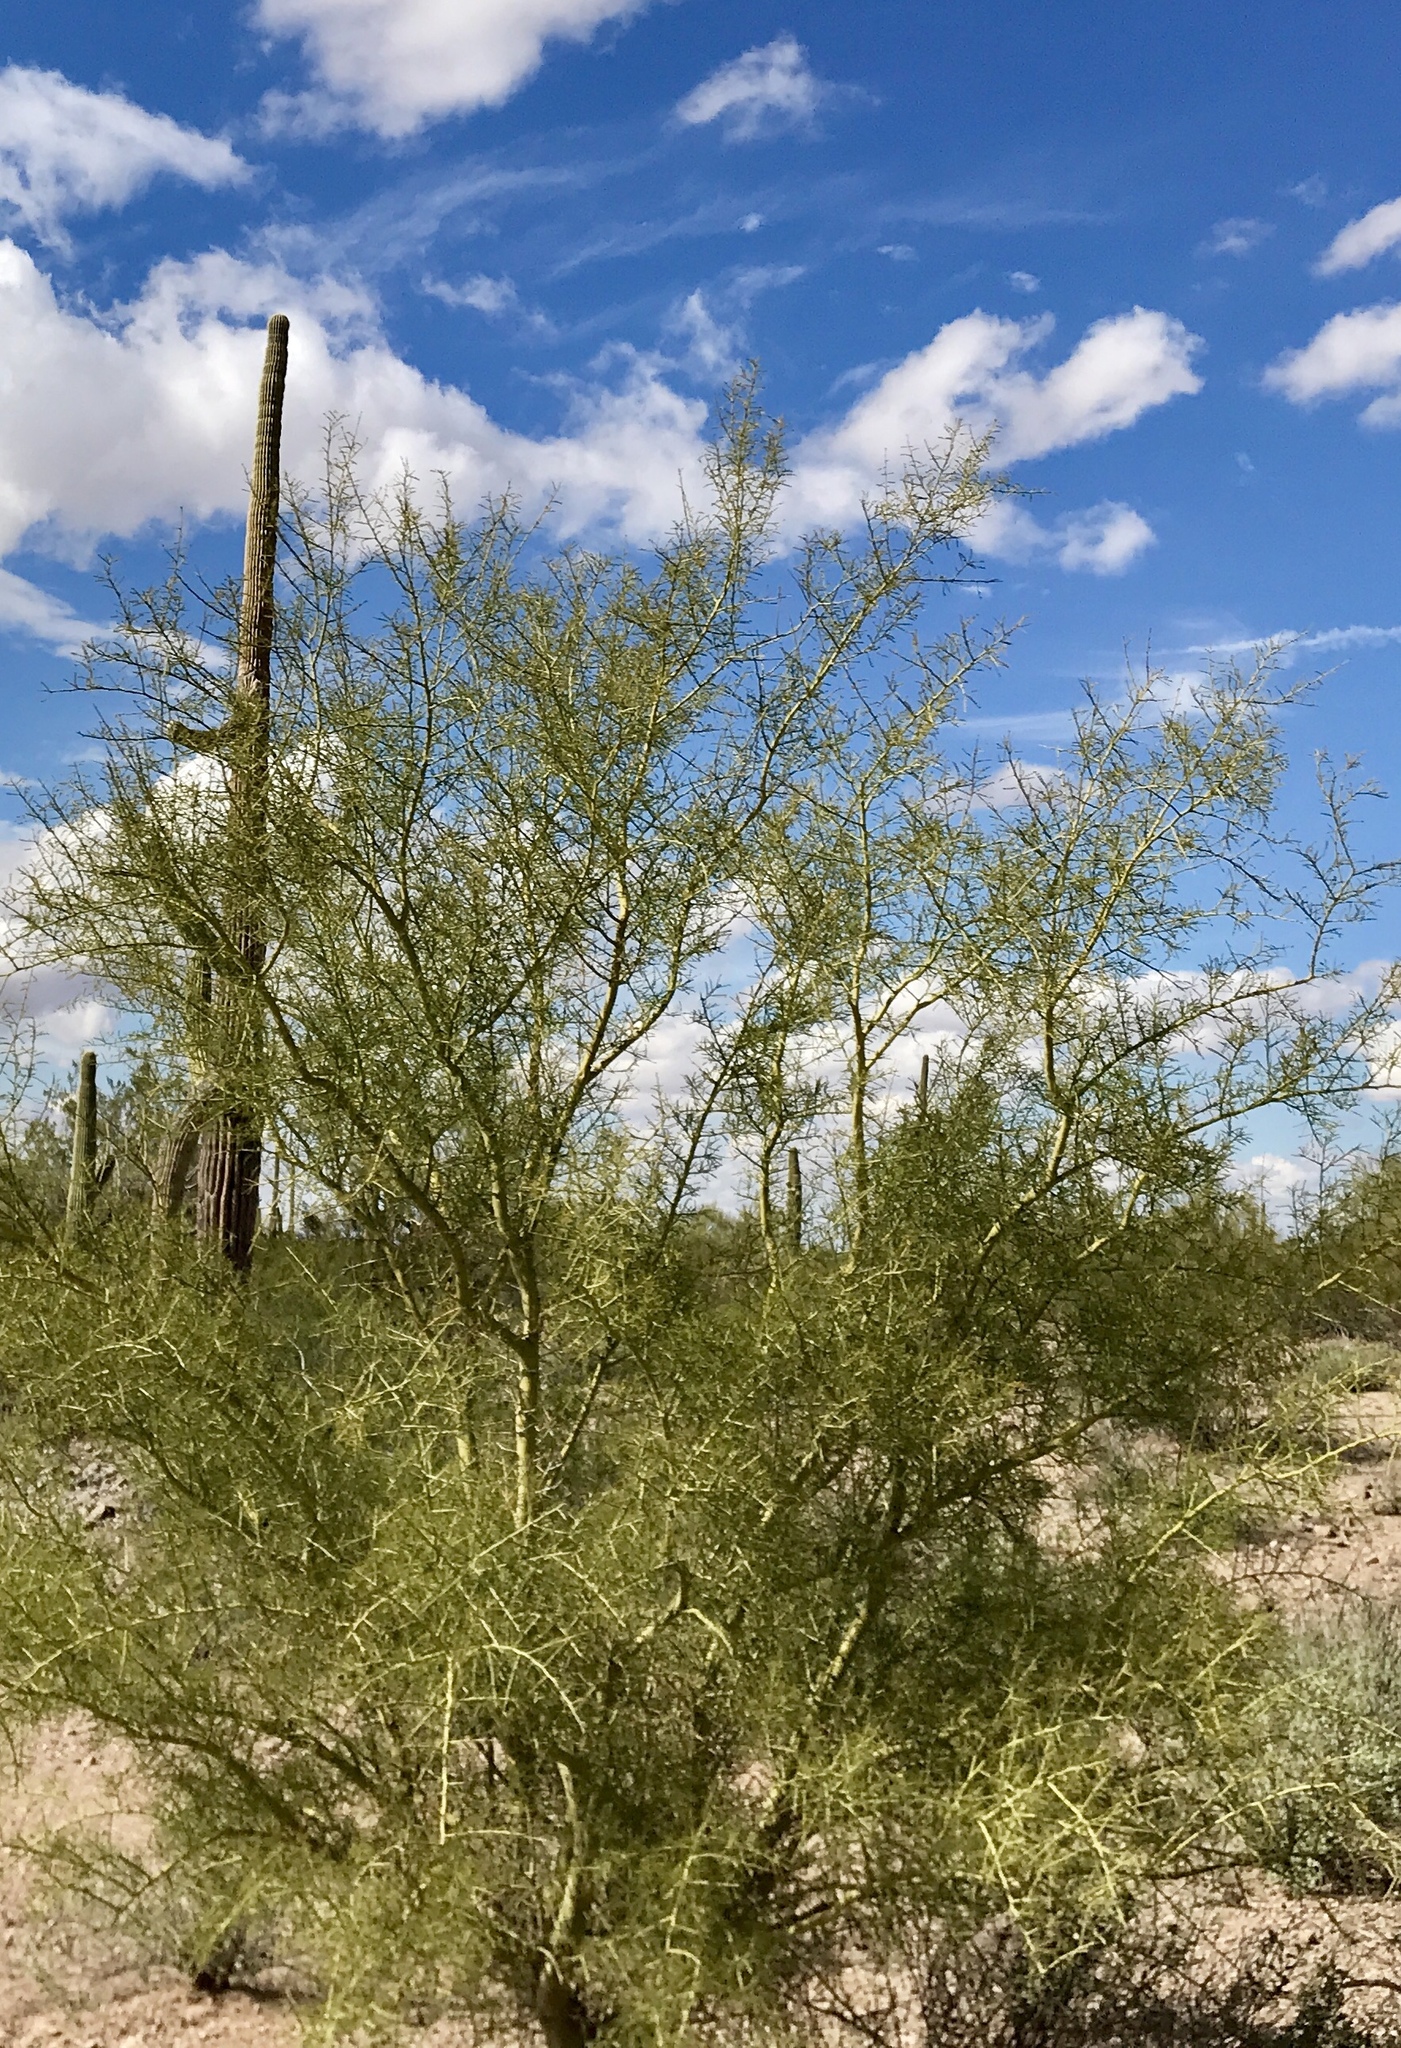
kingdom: Plantae
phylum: Tracheophyta
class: Magnoliopsida
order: Fabales
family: Fabaceae
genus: Parkinsonia
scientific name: Parkinsonia microphylla
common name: Yellow paloverde
